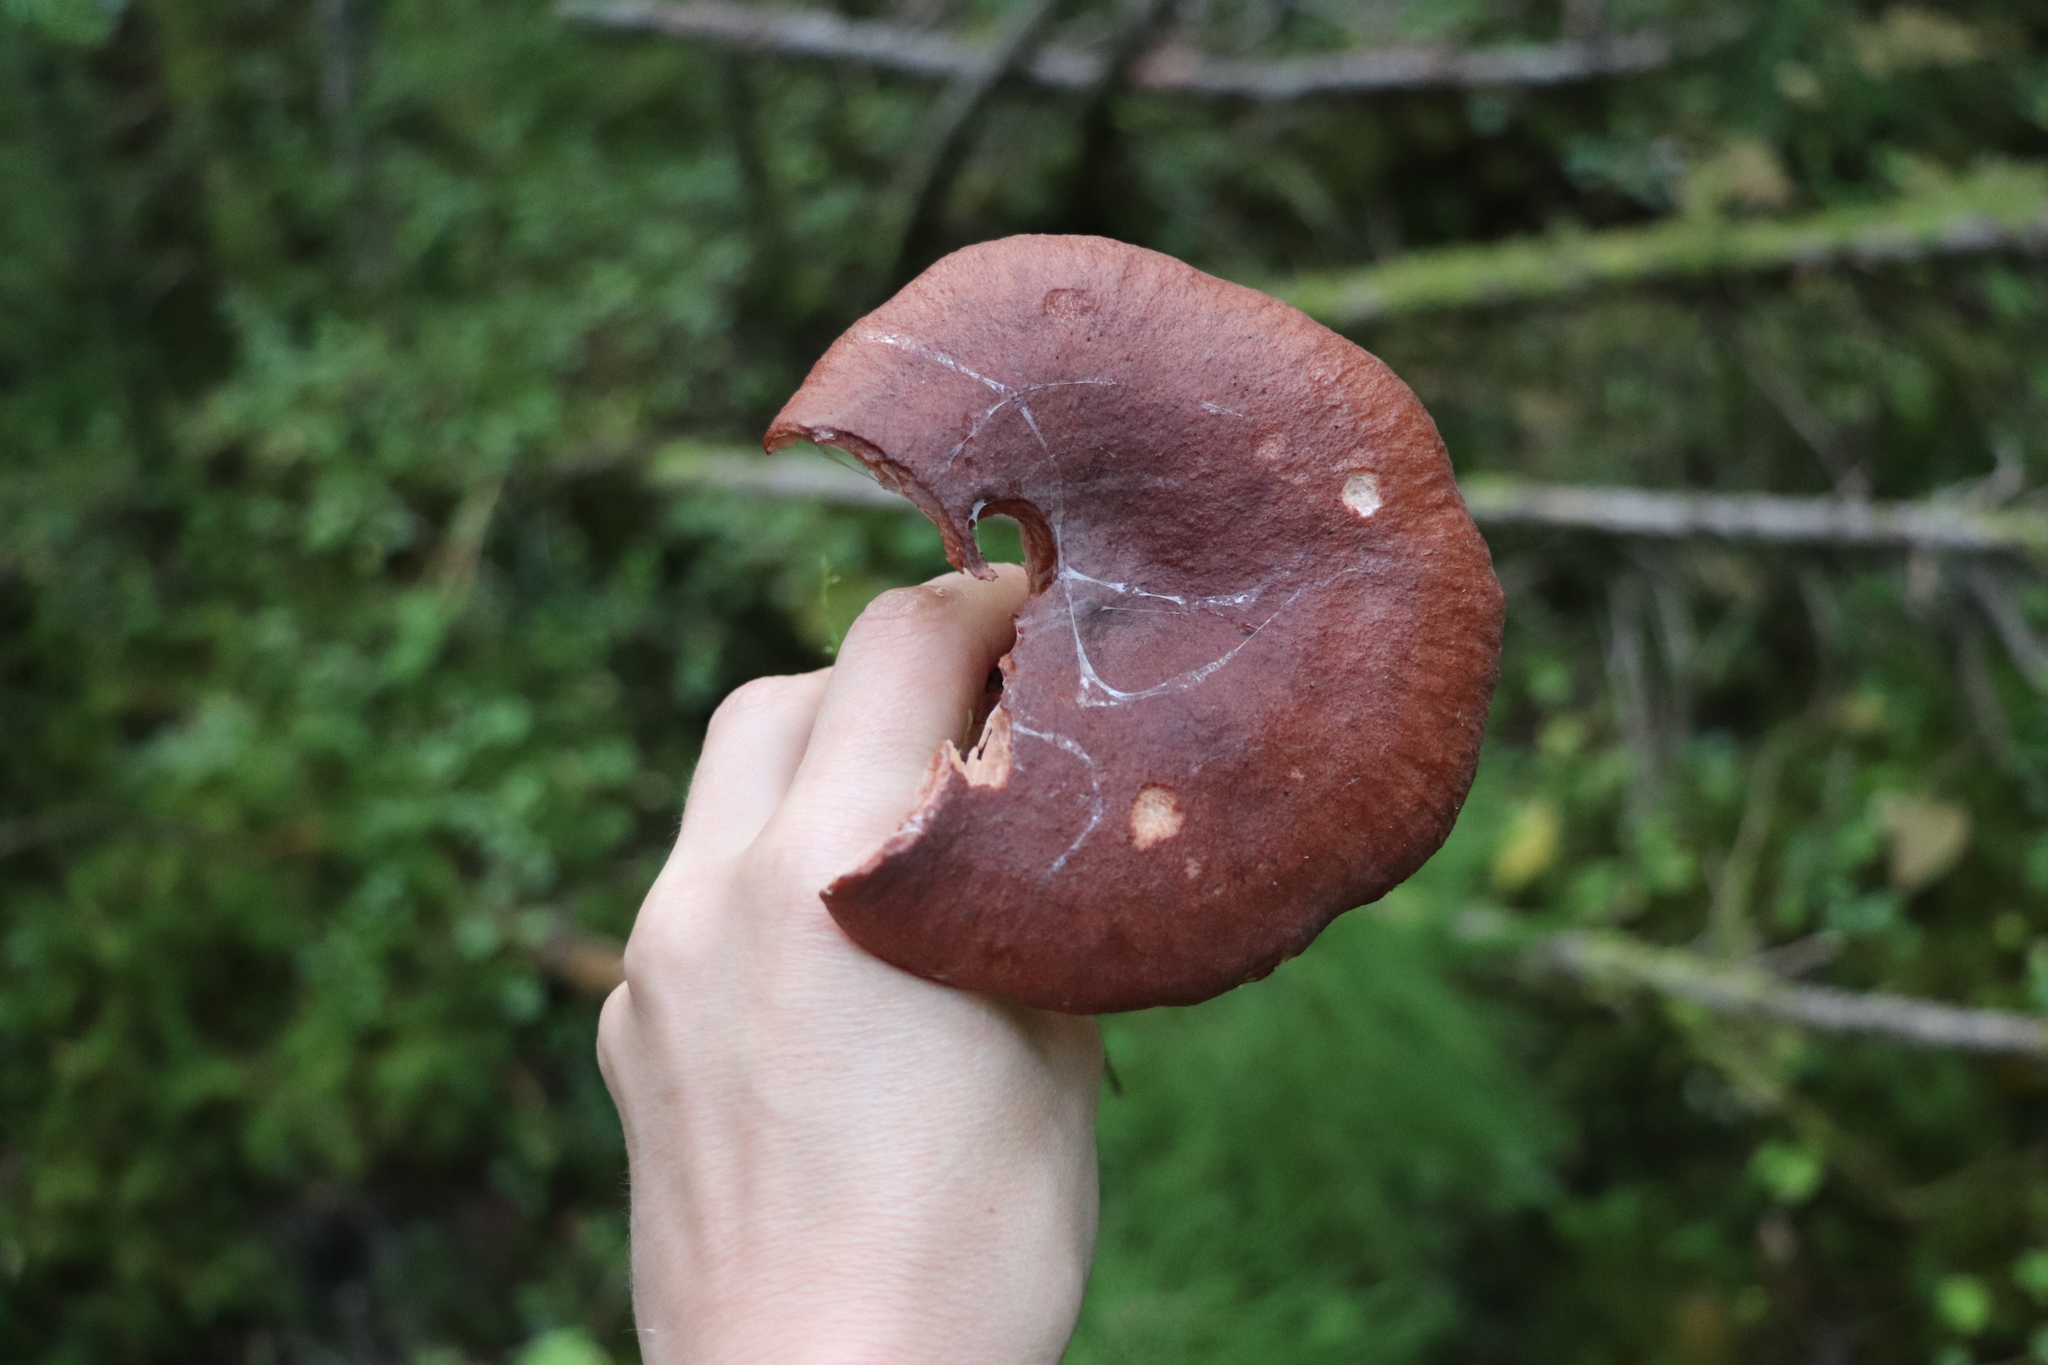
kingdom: Fungi
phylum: Basidiomycota
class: Agaricomycetes
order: Russulales
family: Russulaceae
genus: Lactarius
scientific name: Lactarius rufus
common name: Rufous milk-cap
